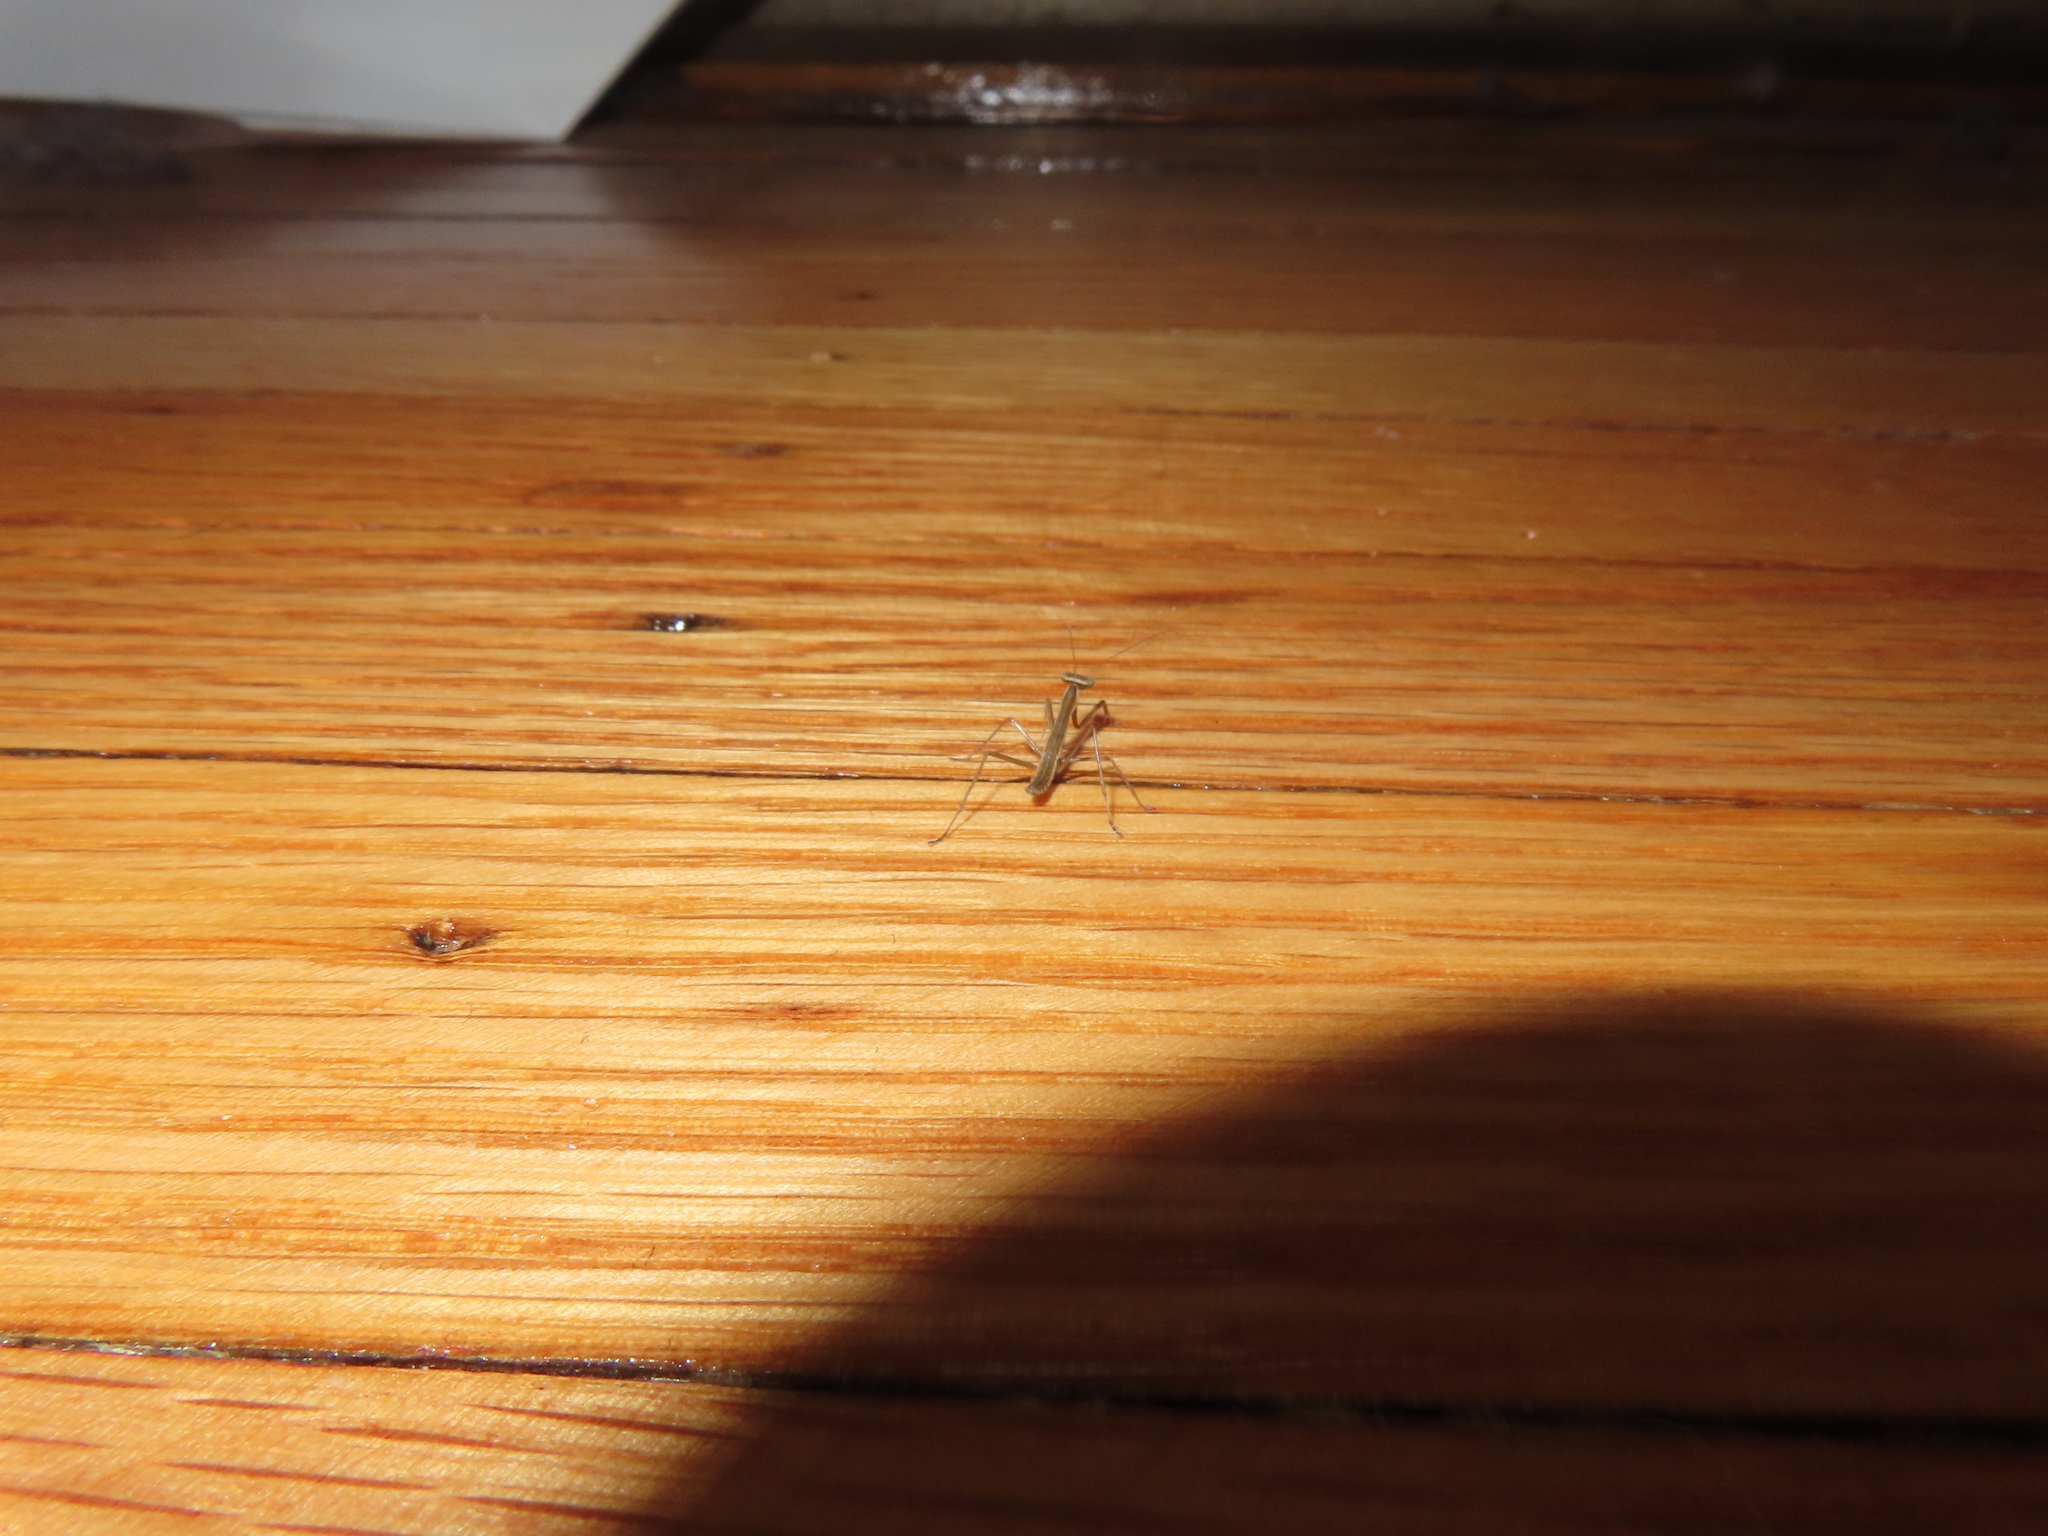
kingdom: Animalia
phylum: Arthropoda
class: Insecta
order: Mantodea
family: Mantidae
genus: Tenodera
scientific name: Tenodera sinensis
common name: Chinese mantis
